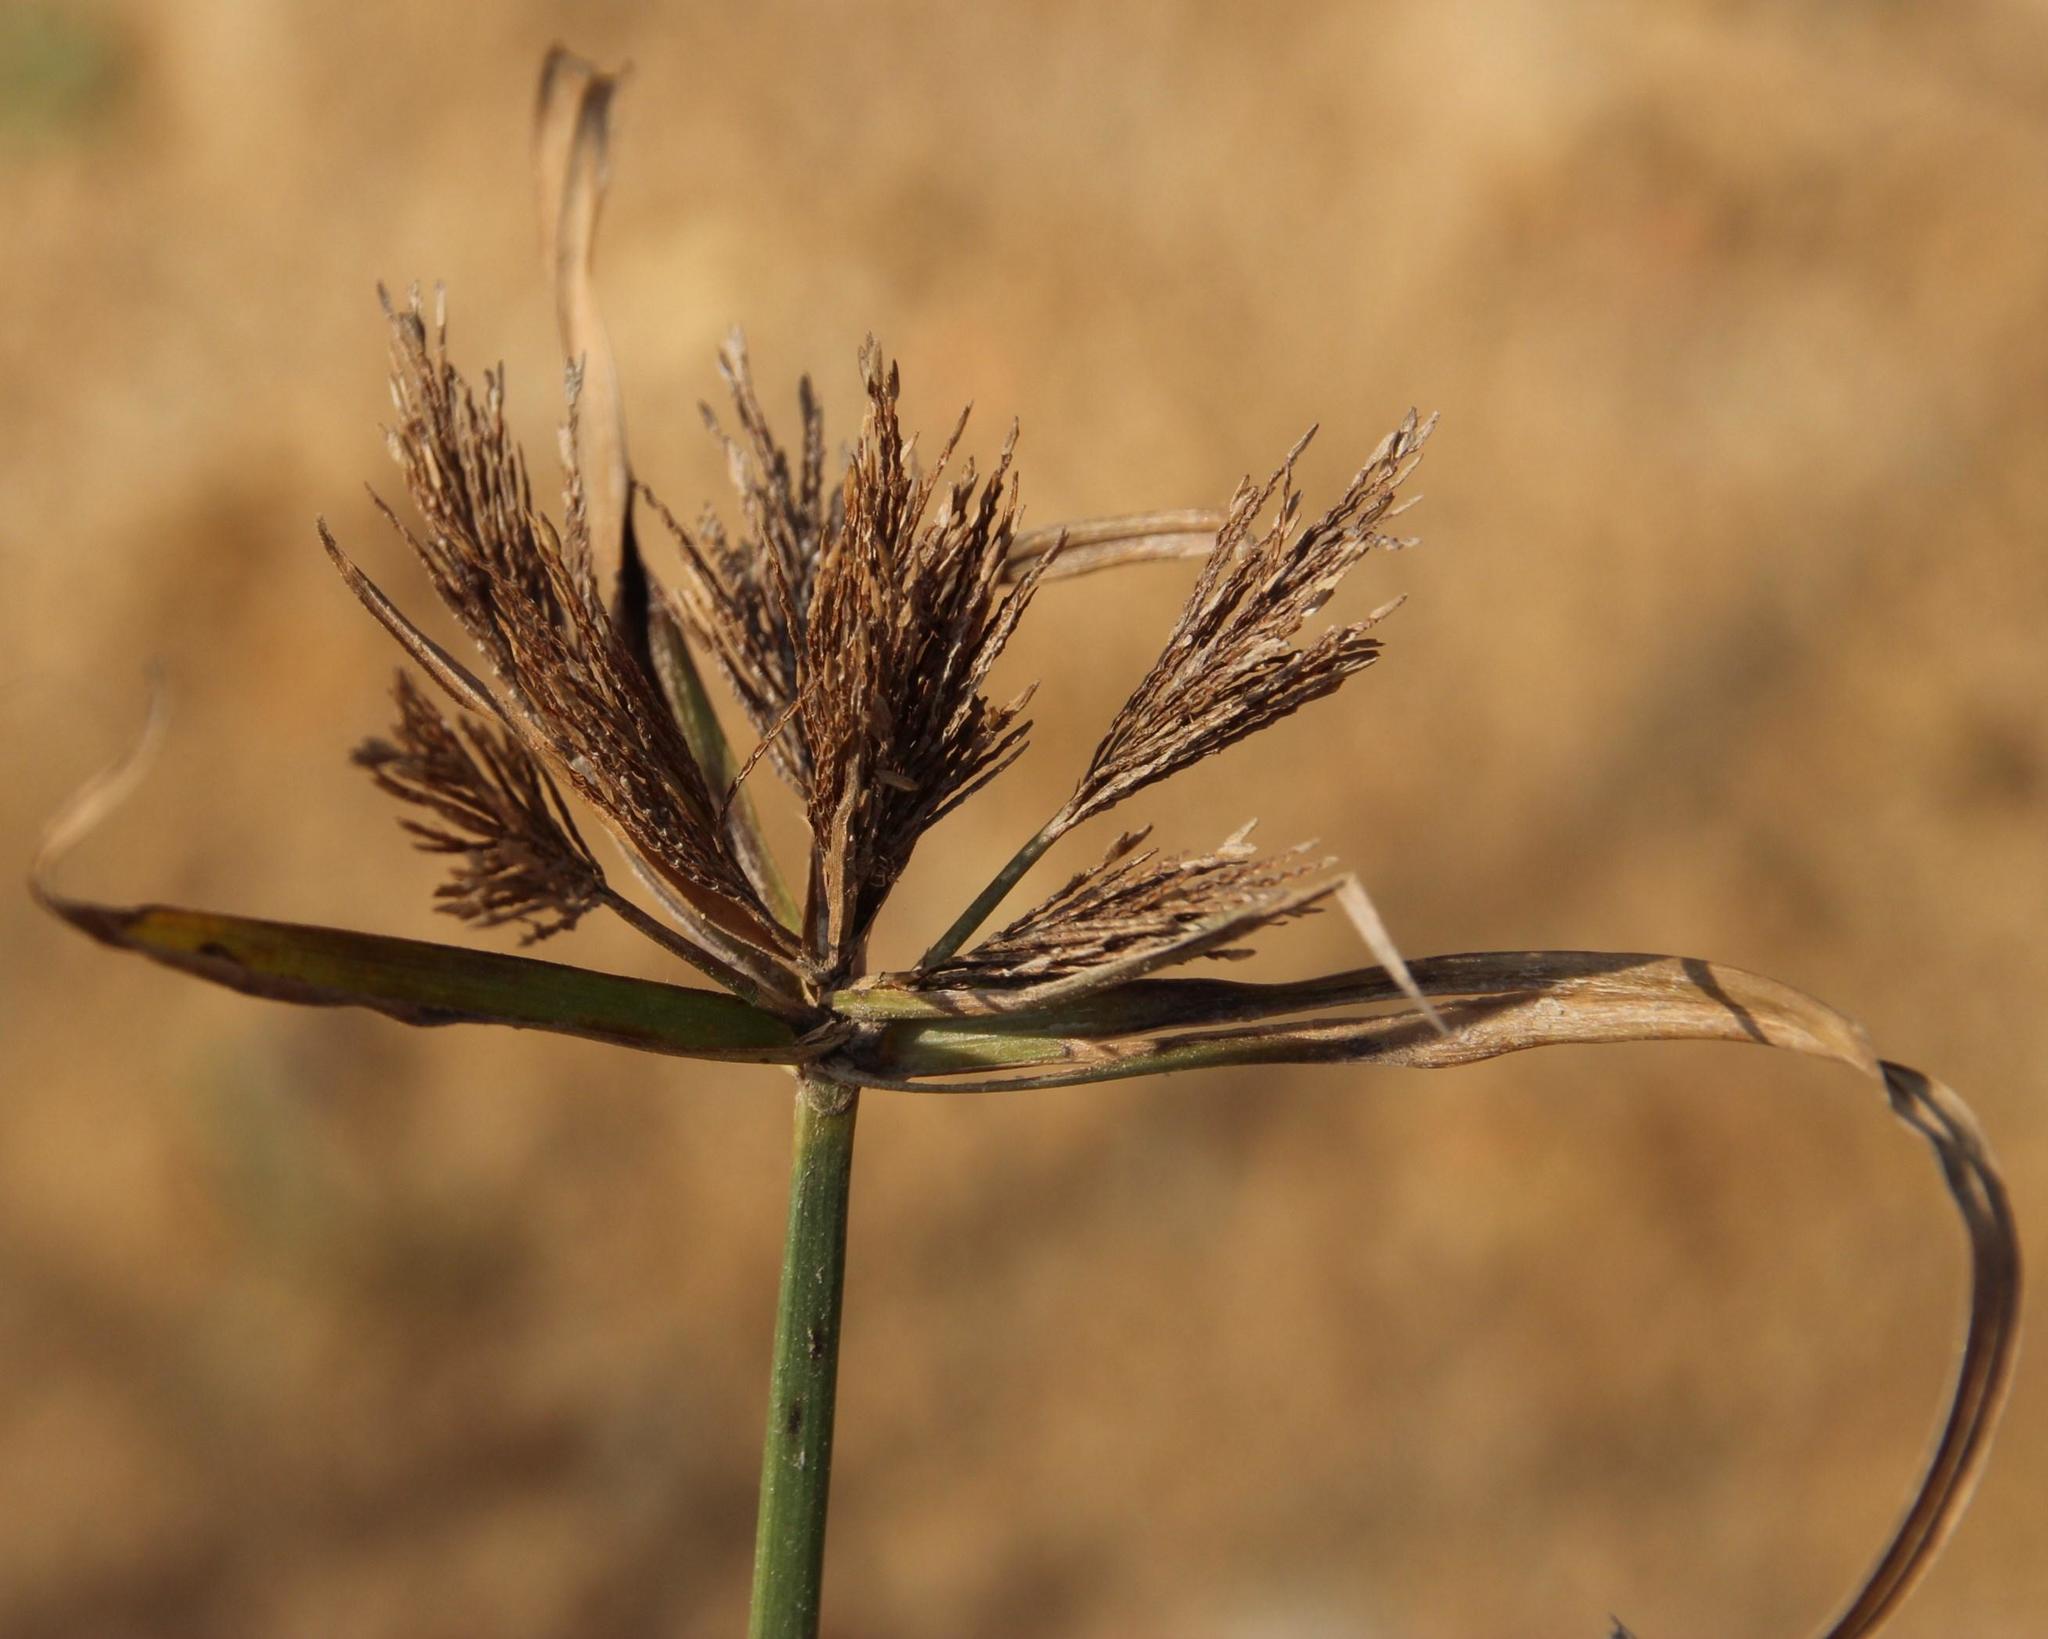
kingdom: Plantae
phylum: Tracheophyta
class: Liliopsida
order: Poales
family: Cyperaceae
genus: Cyperus
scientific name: Cyperus polystachyos
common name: Bunchy flat sedge
